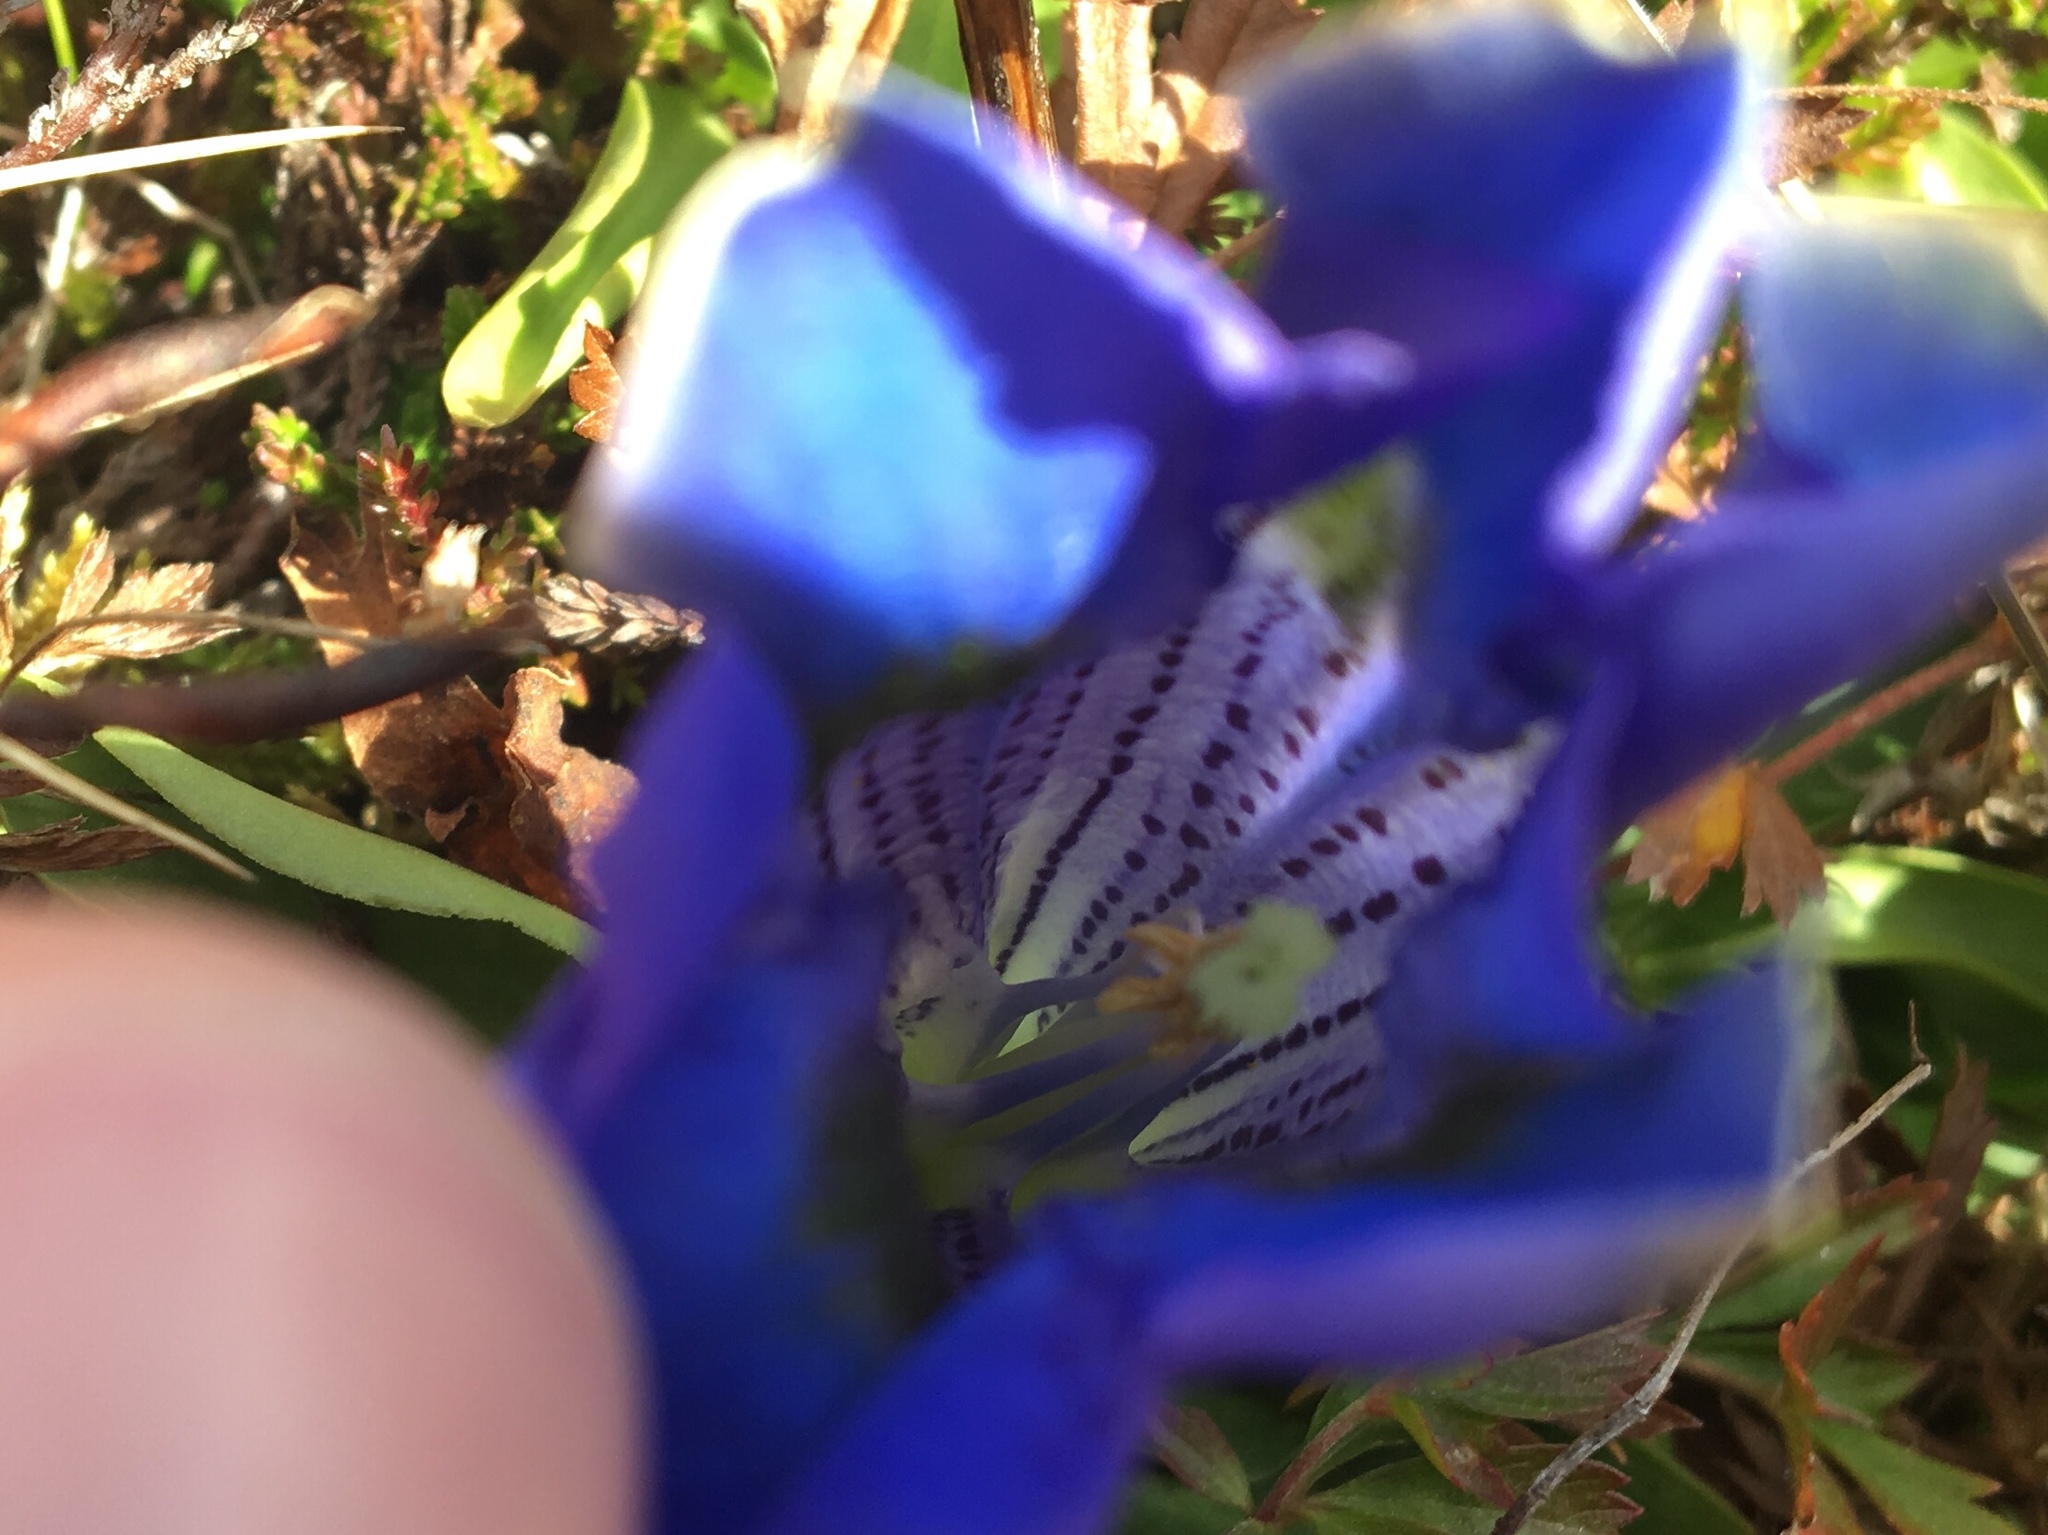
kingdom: Plantae
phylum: Tracheophyta
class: Magnoliopsida
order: Gentianales
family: Gentianaceae
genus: Gentiana
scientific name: Gentiana acaulis
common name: Trumpet gentian
